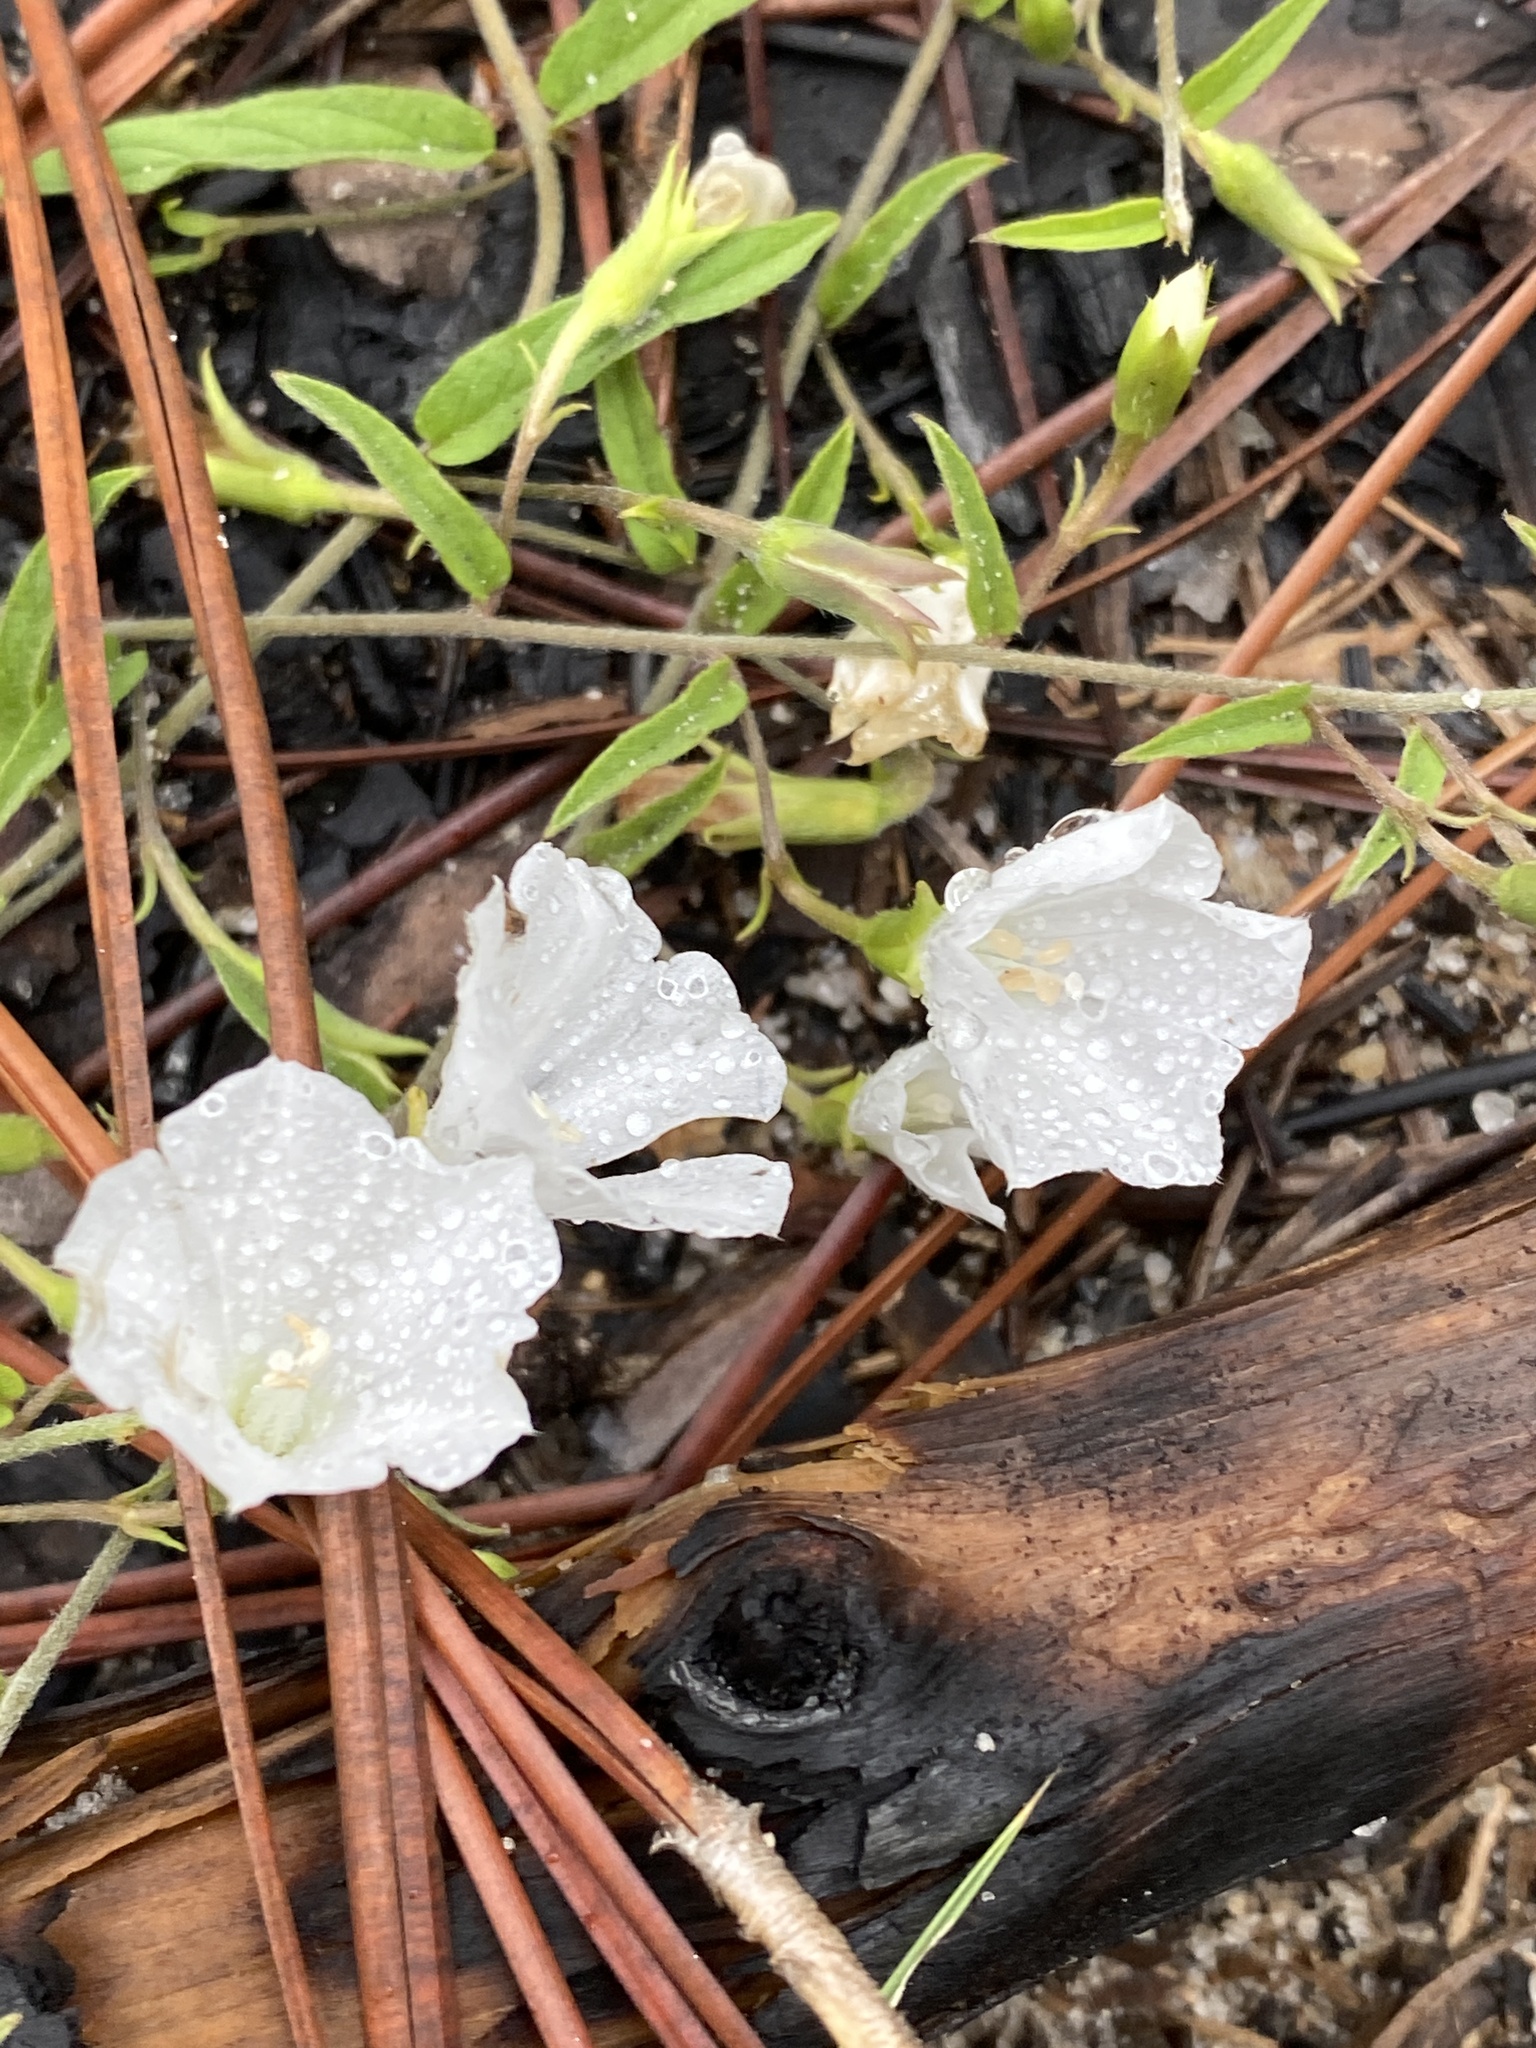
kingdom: Plantae
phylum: Tracheophyta
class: Magnoliopsida
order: Solanales
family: Convolvulaceae
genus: Stylisma
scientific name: Stylisma patens
